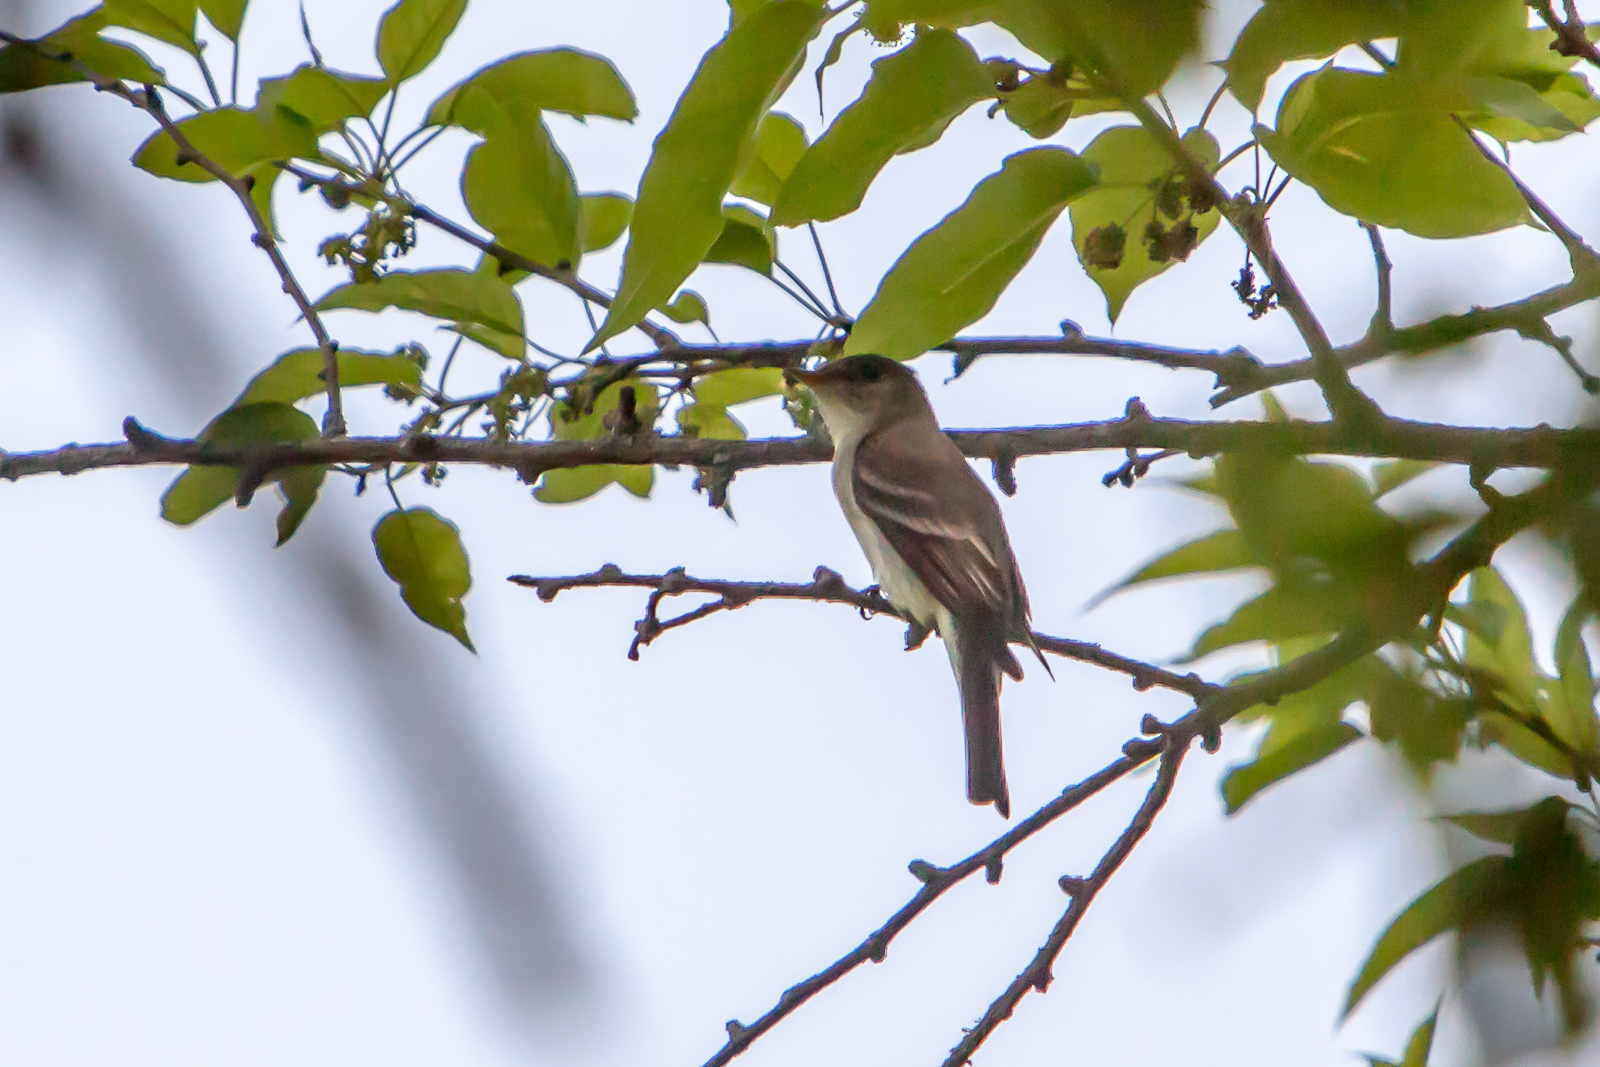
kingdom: Animalia
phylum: Chordata
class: Aves
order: Passeriformes
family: Tyrannidae
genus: Contopus
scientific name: Contopus virens
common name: Eastern wood-pewee
